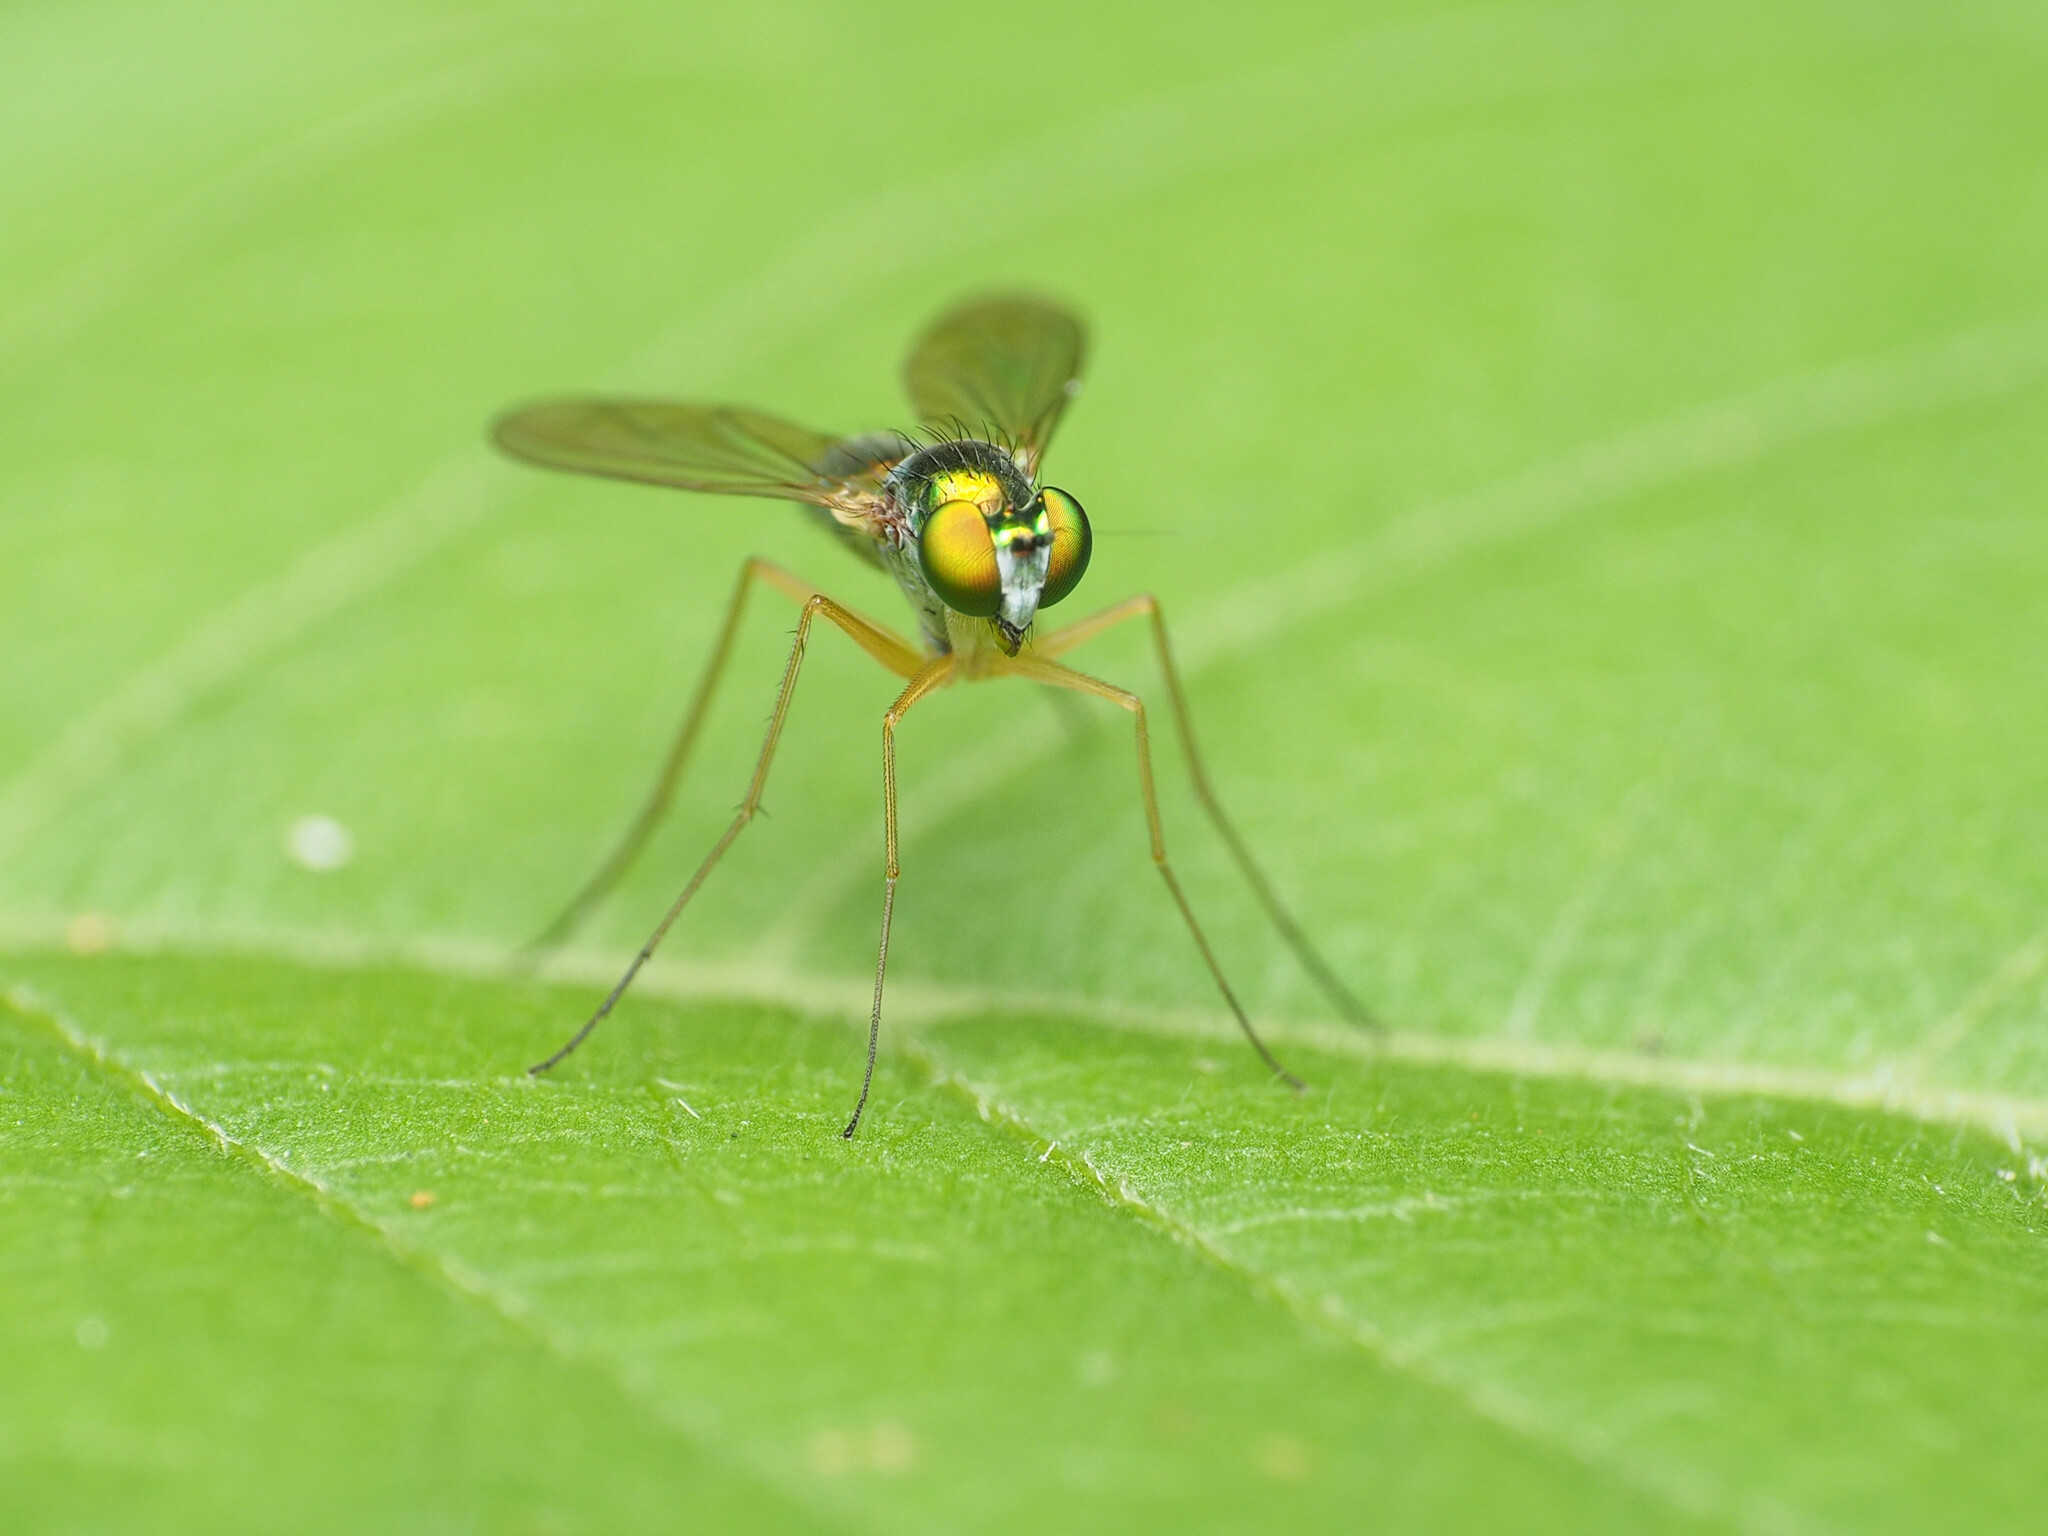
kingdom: Animalia
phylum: Arthropoda
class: Insecta
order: Diptera
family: Dolichopodidae
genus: Amblypsilopus
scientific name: Amblypsilopus scintillans
